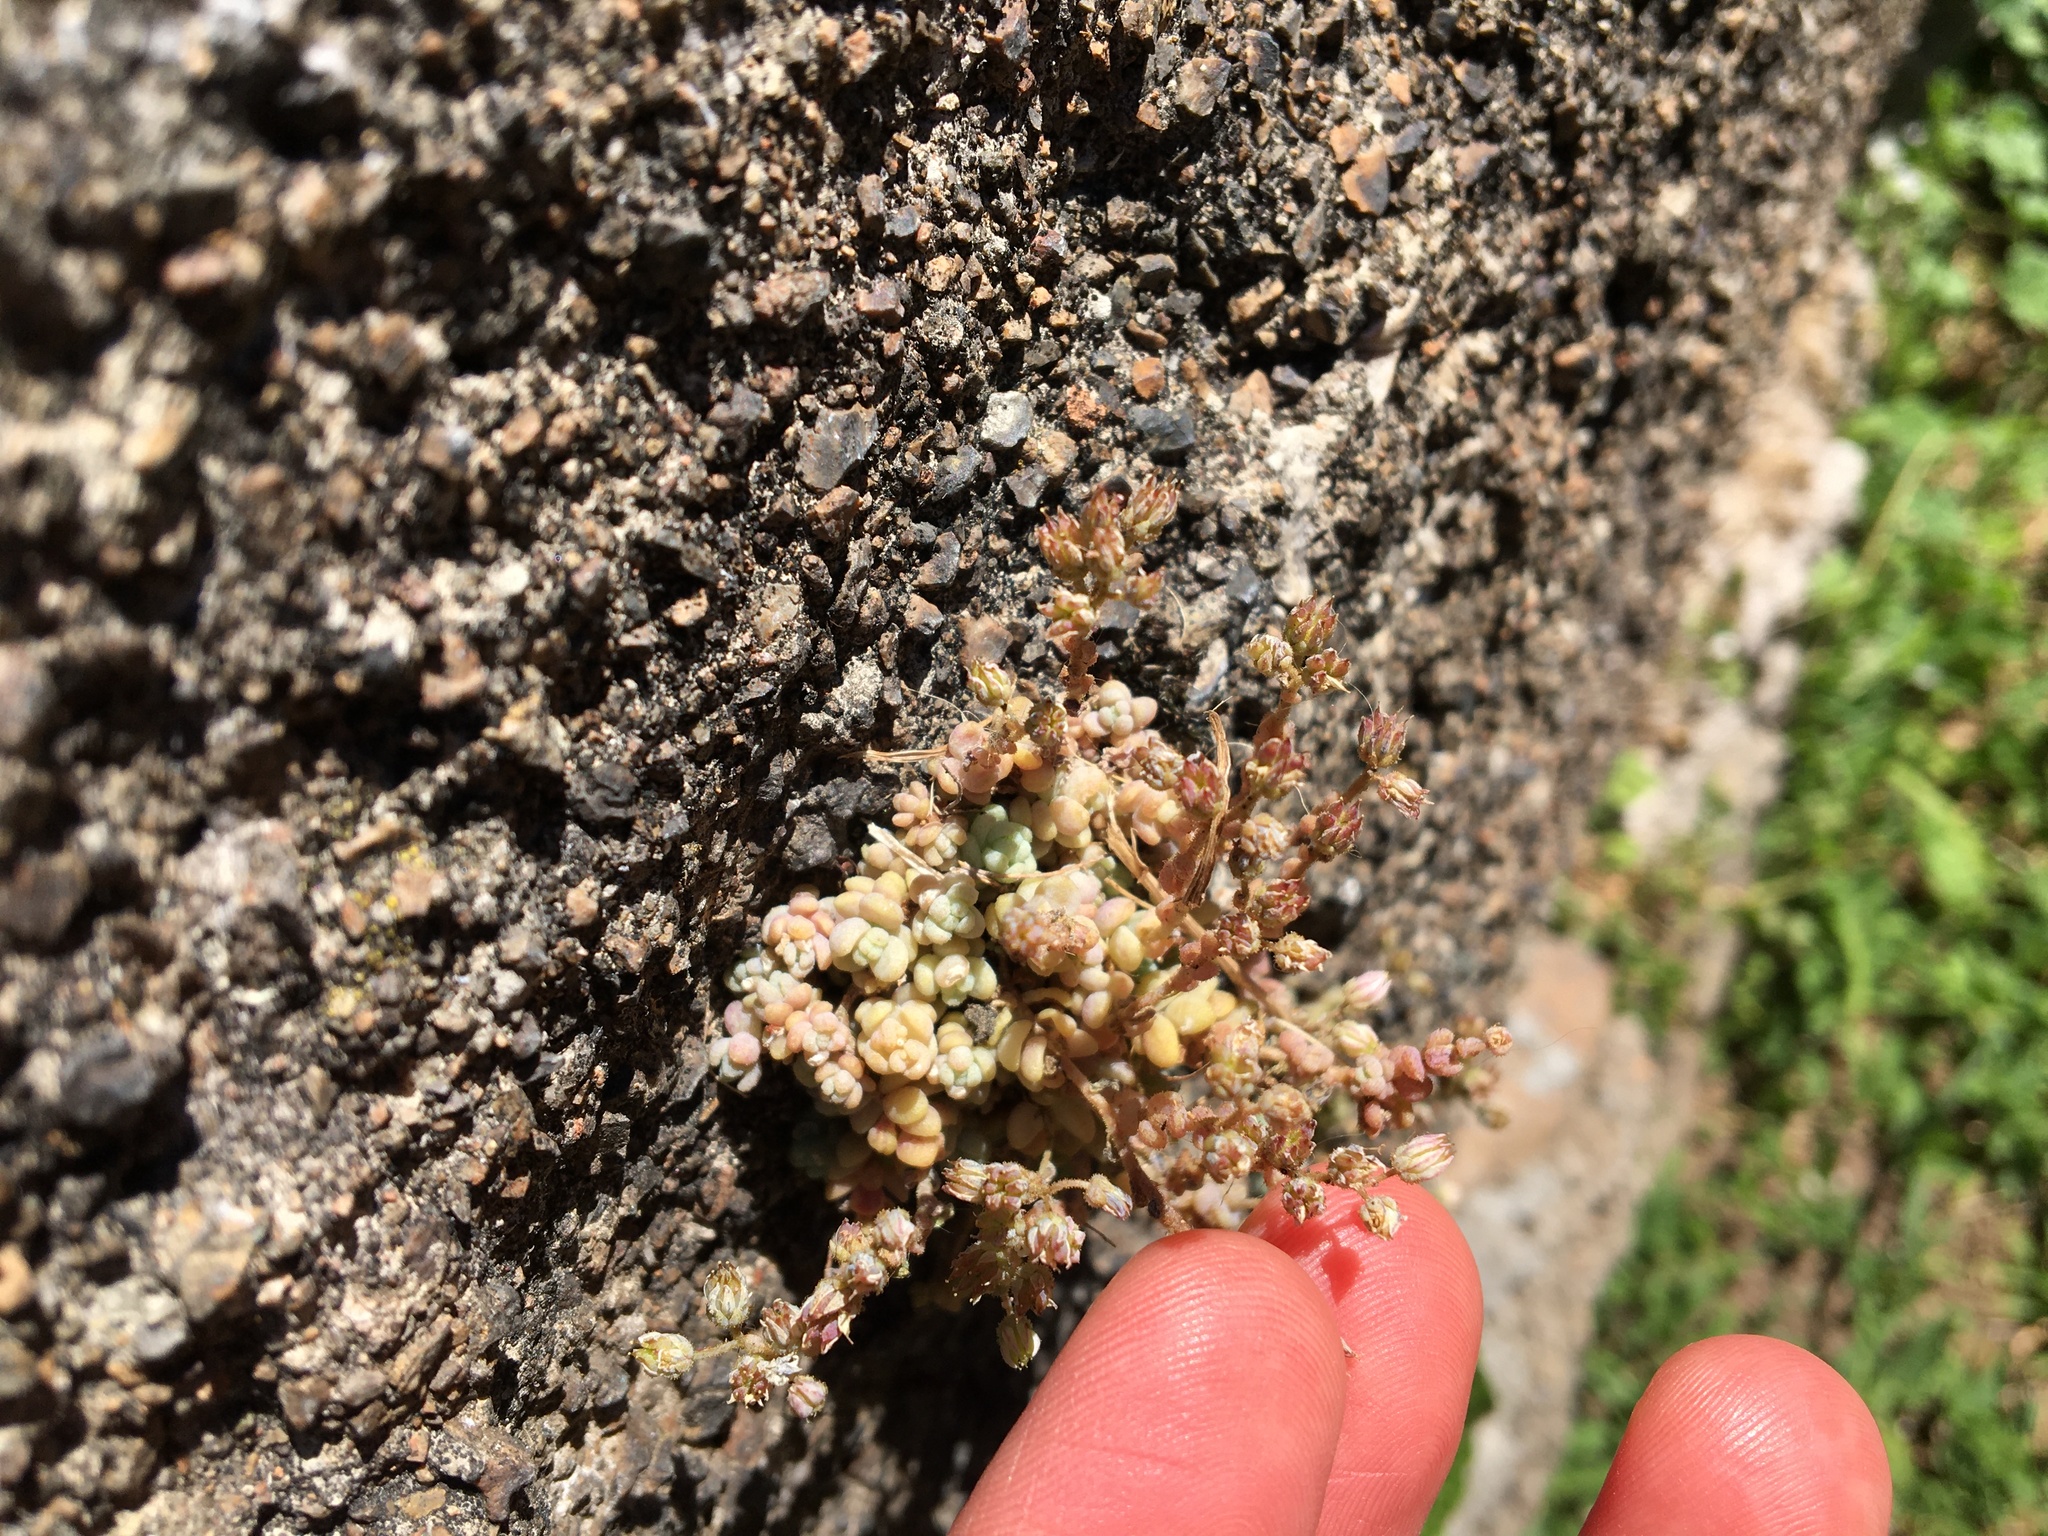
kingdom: Plantae
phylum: Tracheophyta
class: Magnoliopsida
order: Saxifragales
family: Crassulaceae
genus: Sedum
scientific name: Sedum dasyphyllum
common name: Thick-leaf stonecrop
